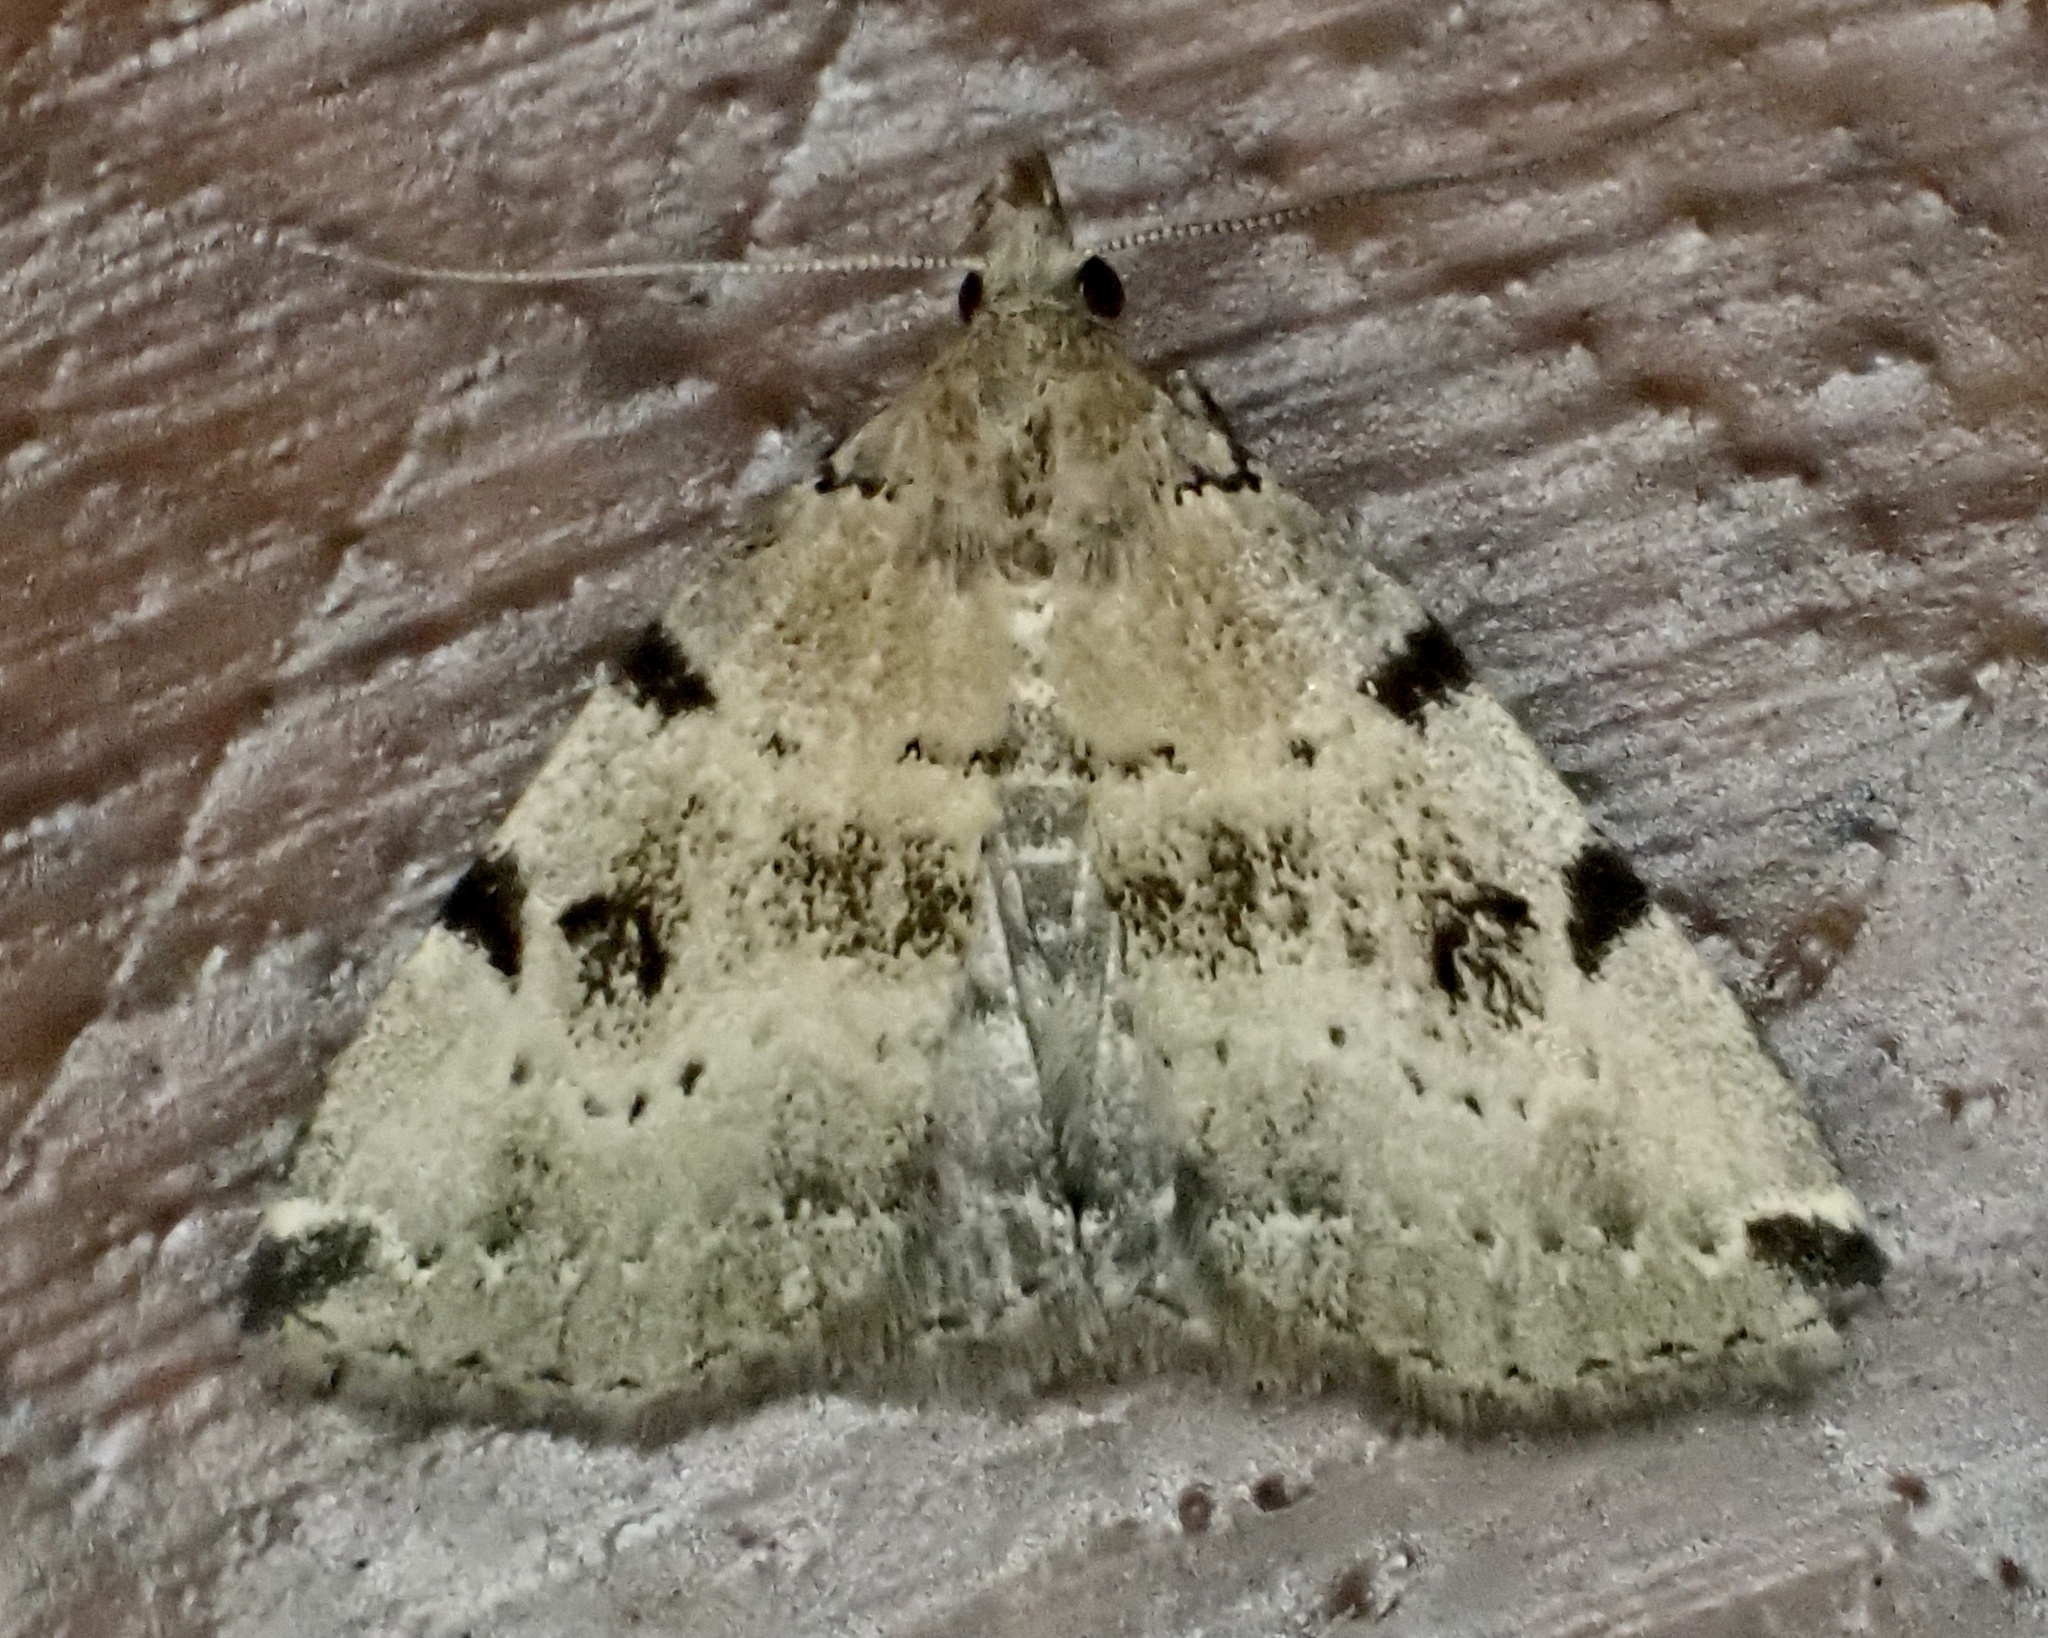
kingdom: Animalia
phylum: Arthropoda
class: Insecta
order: Lepidoptera
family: Erebidae
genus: Zanclognatha
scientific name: Zanclognatha lituralis
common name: Lettered fan-foot
